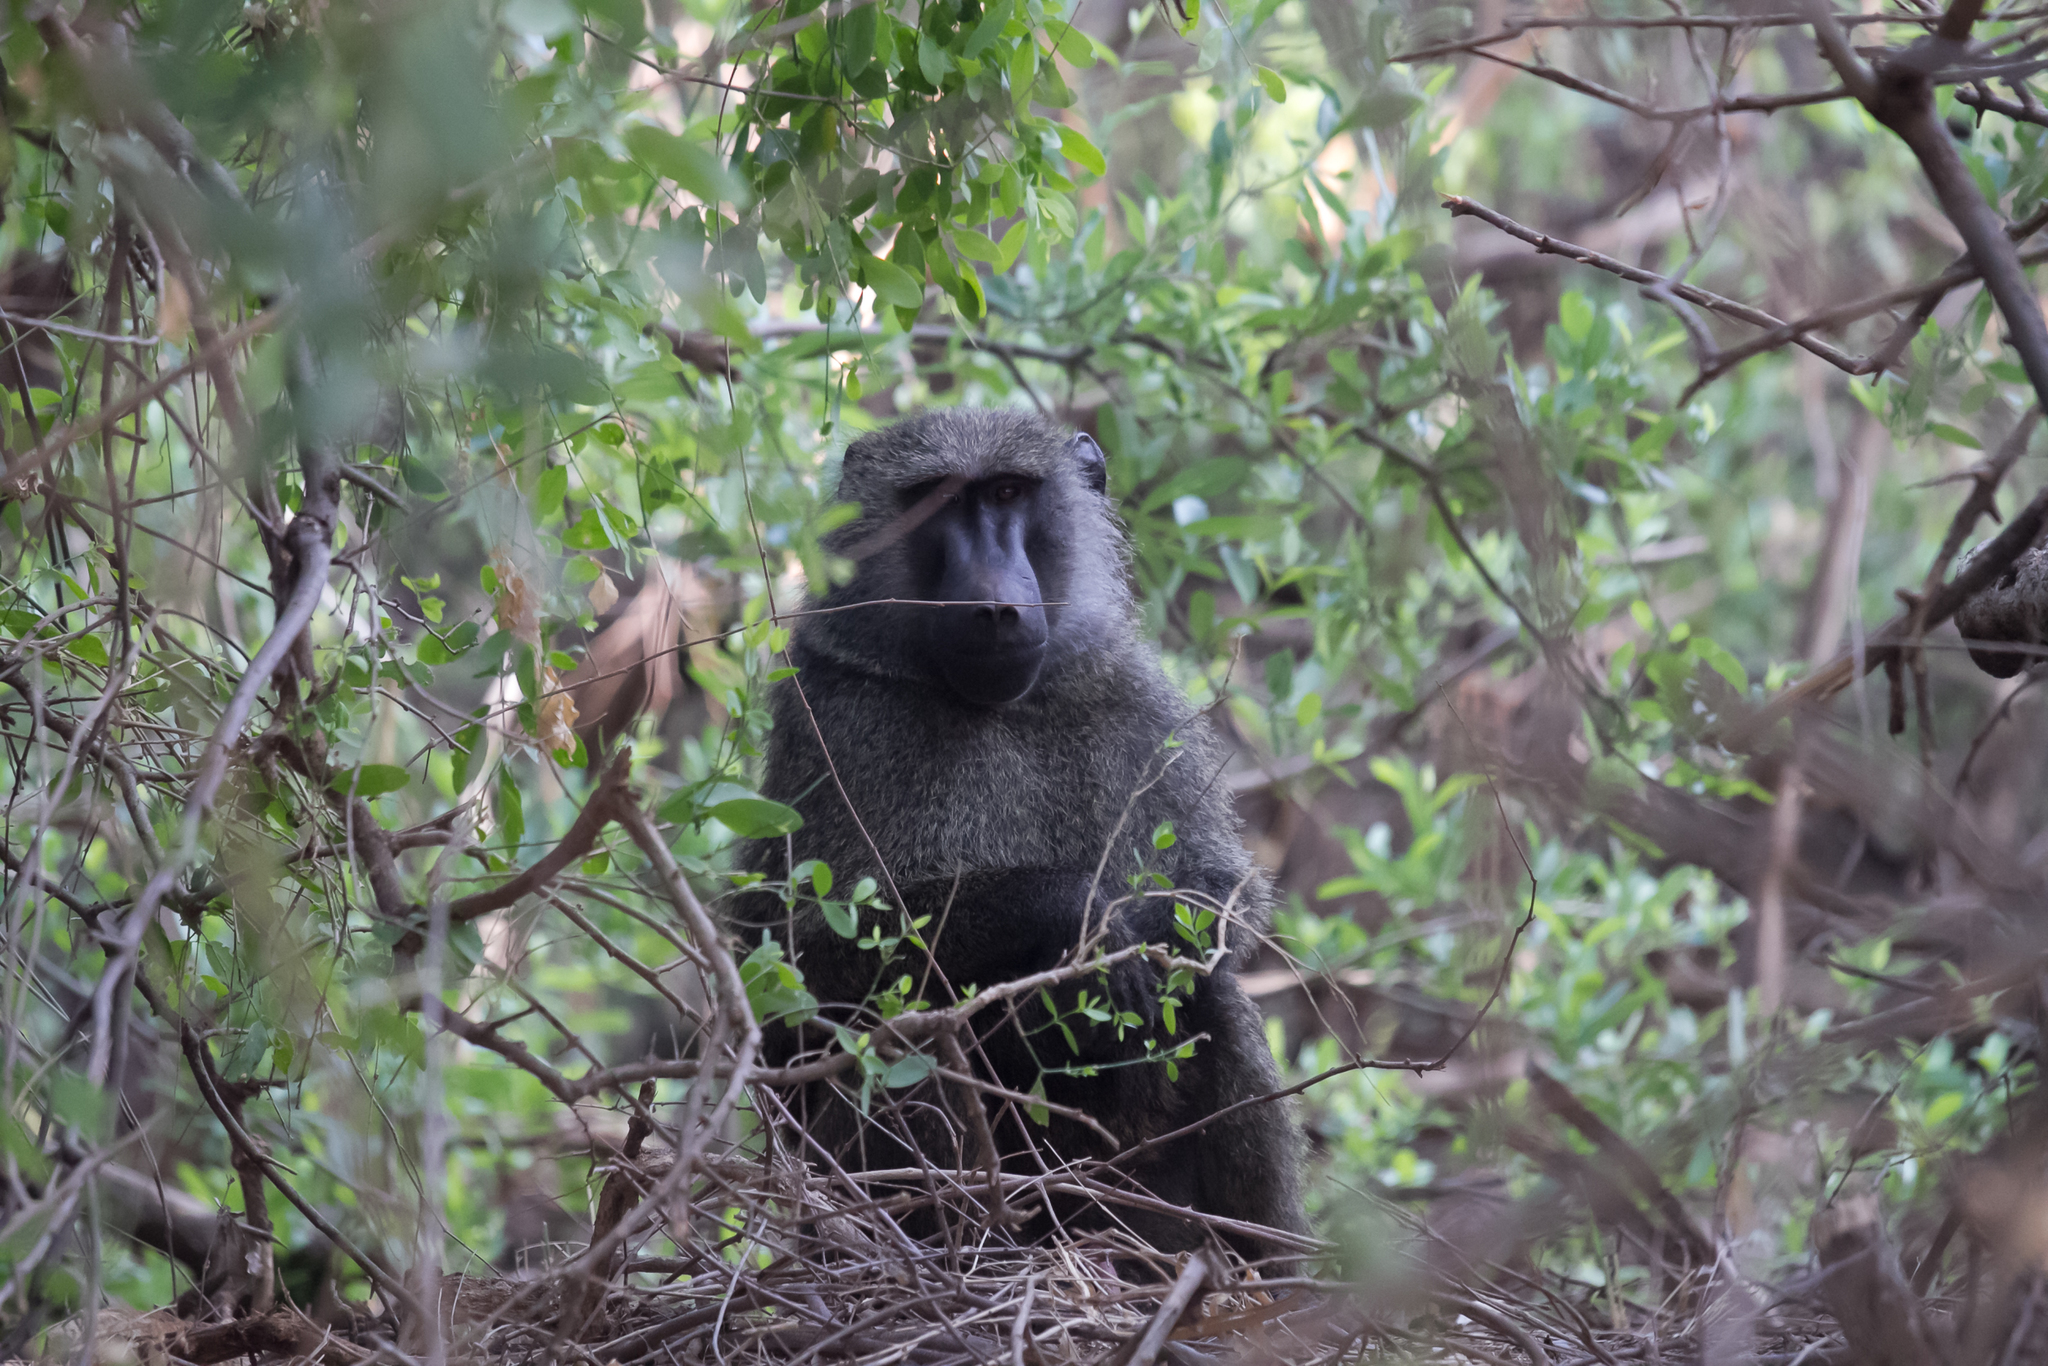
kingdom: Animalia
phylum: Chordata
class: Mammalia
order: Primates
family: Cercopithecidae
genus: Papio
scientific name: Papio anubis
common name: Olive baboon
